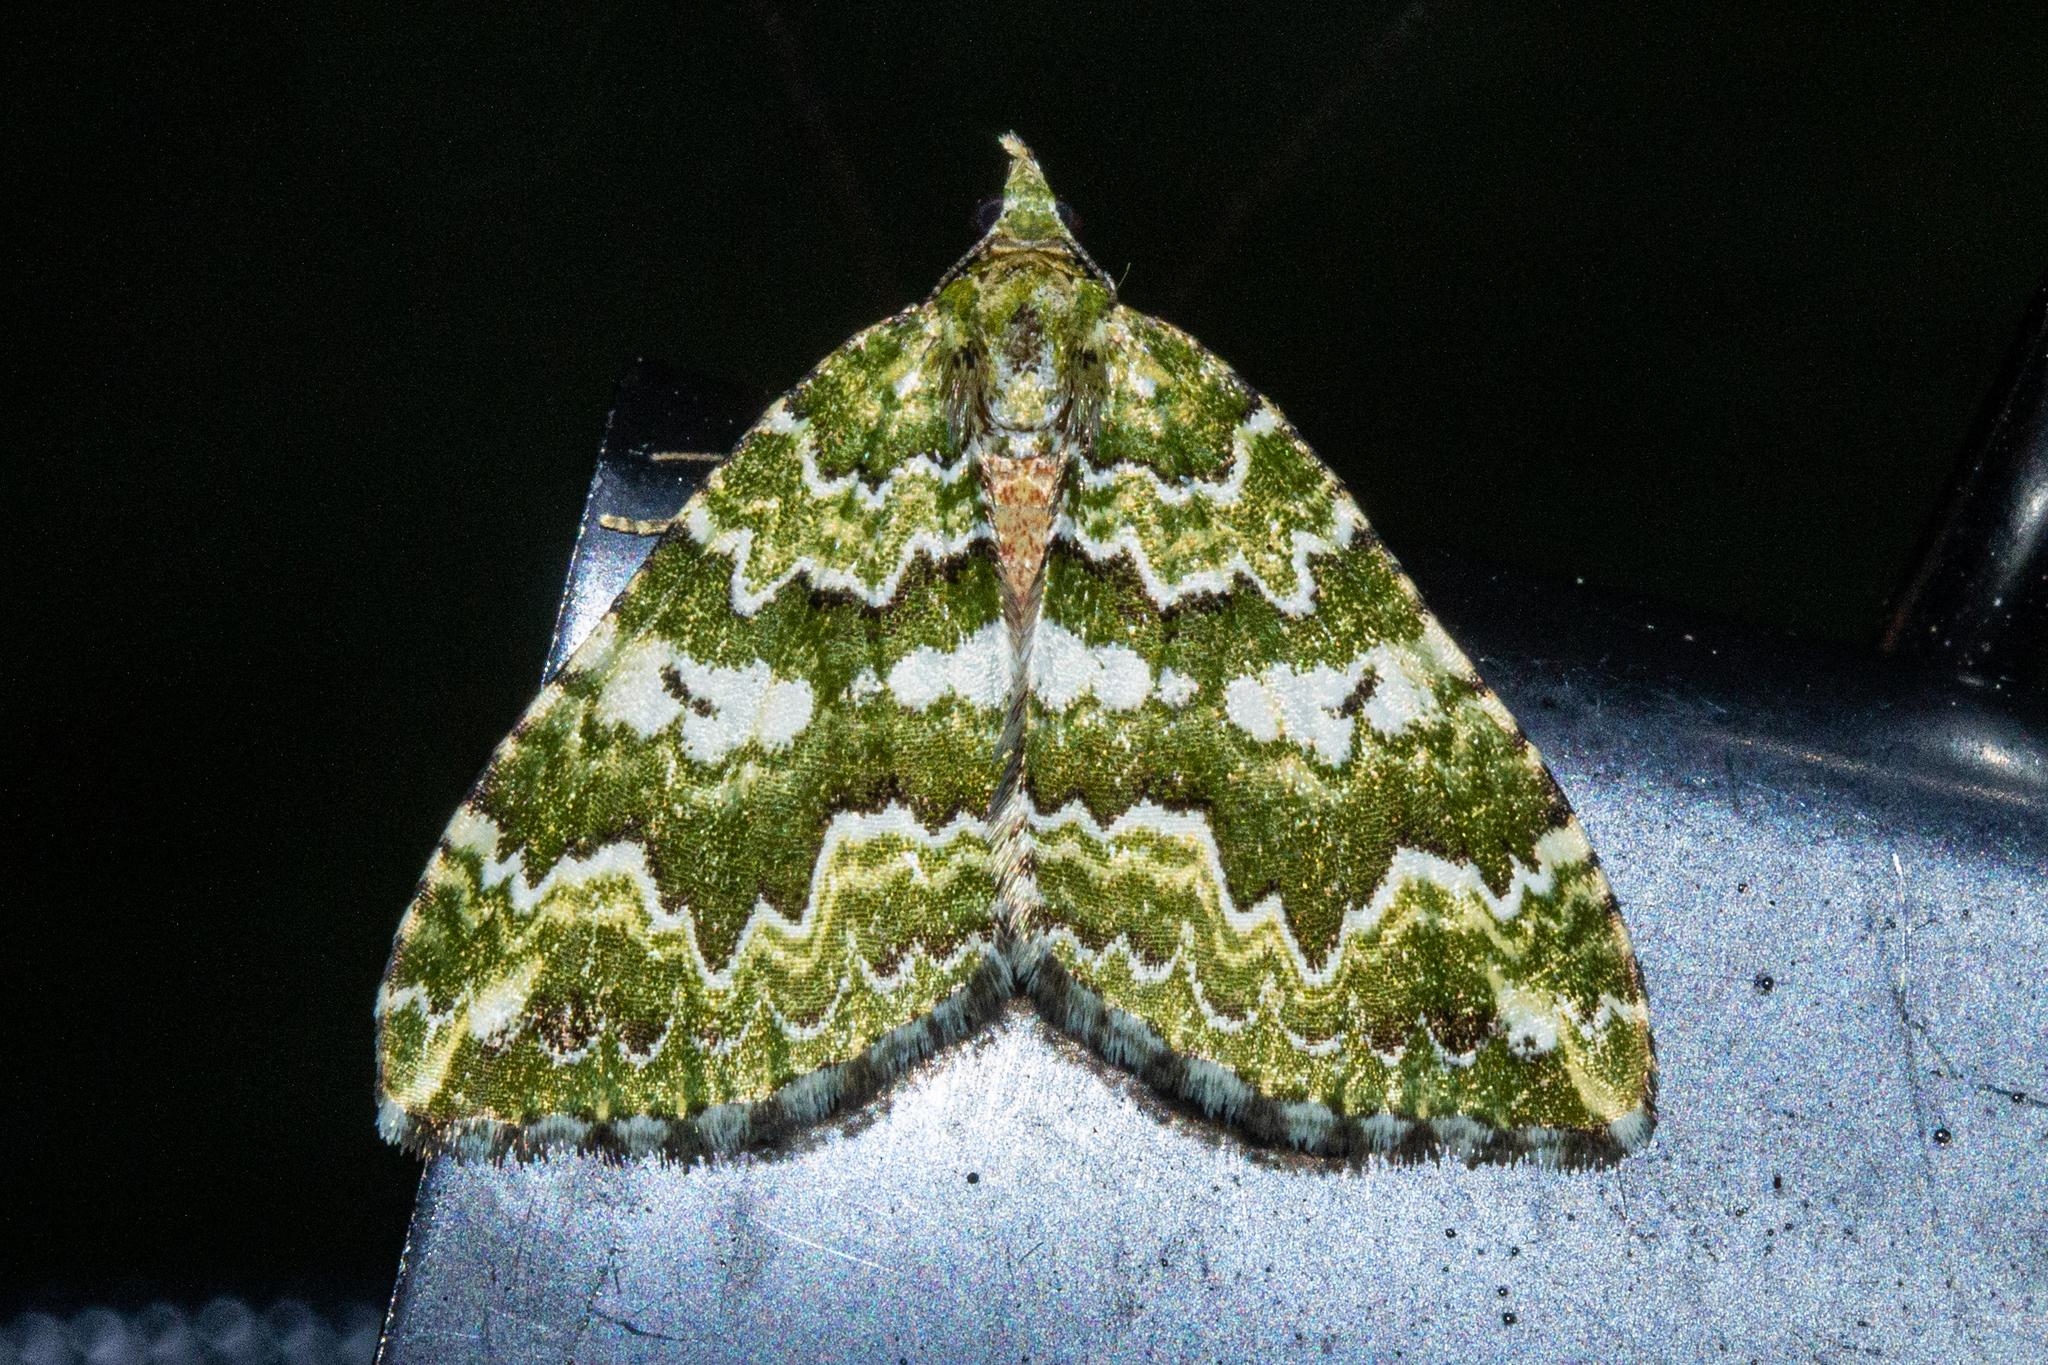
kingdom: Animalia
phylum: Arthropoda
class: Insecta
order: Lepidoptera
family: Geometridae
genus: Asaphodes
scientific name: Asaphodes beata
